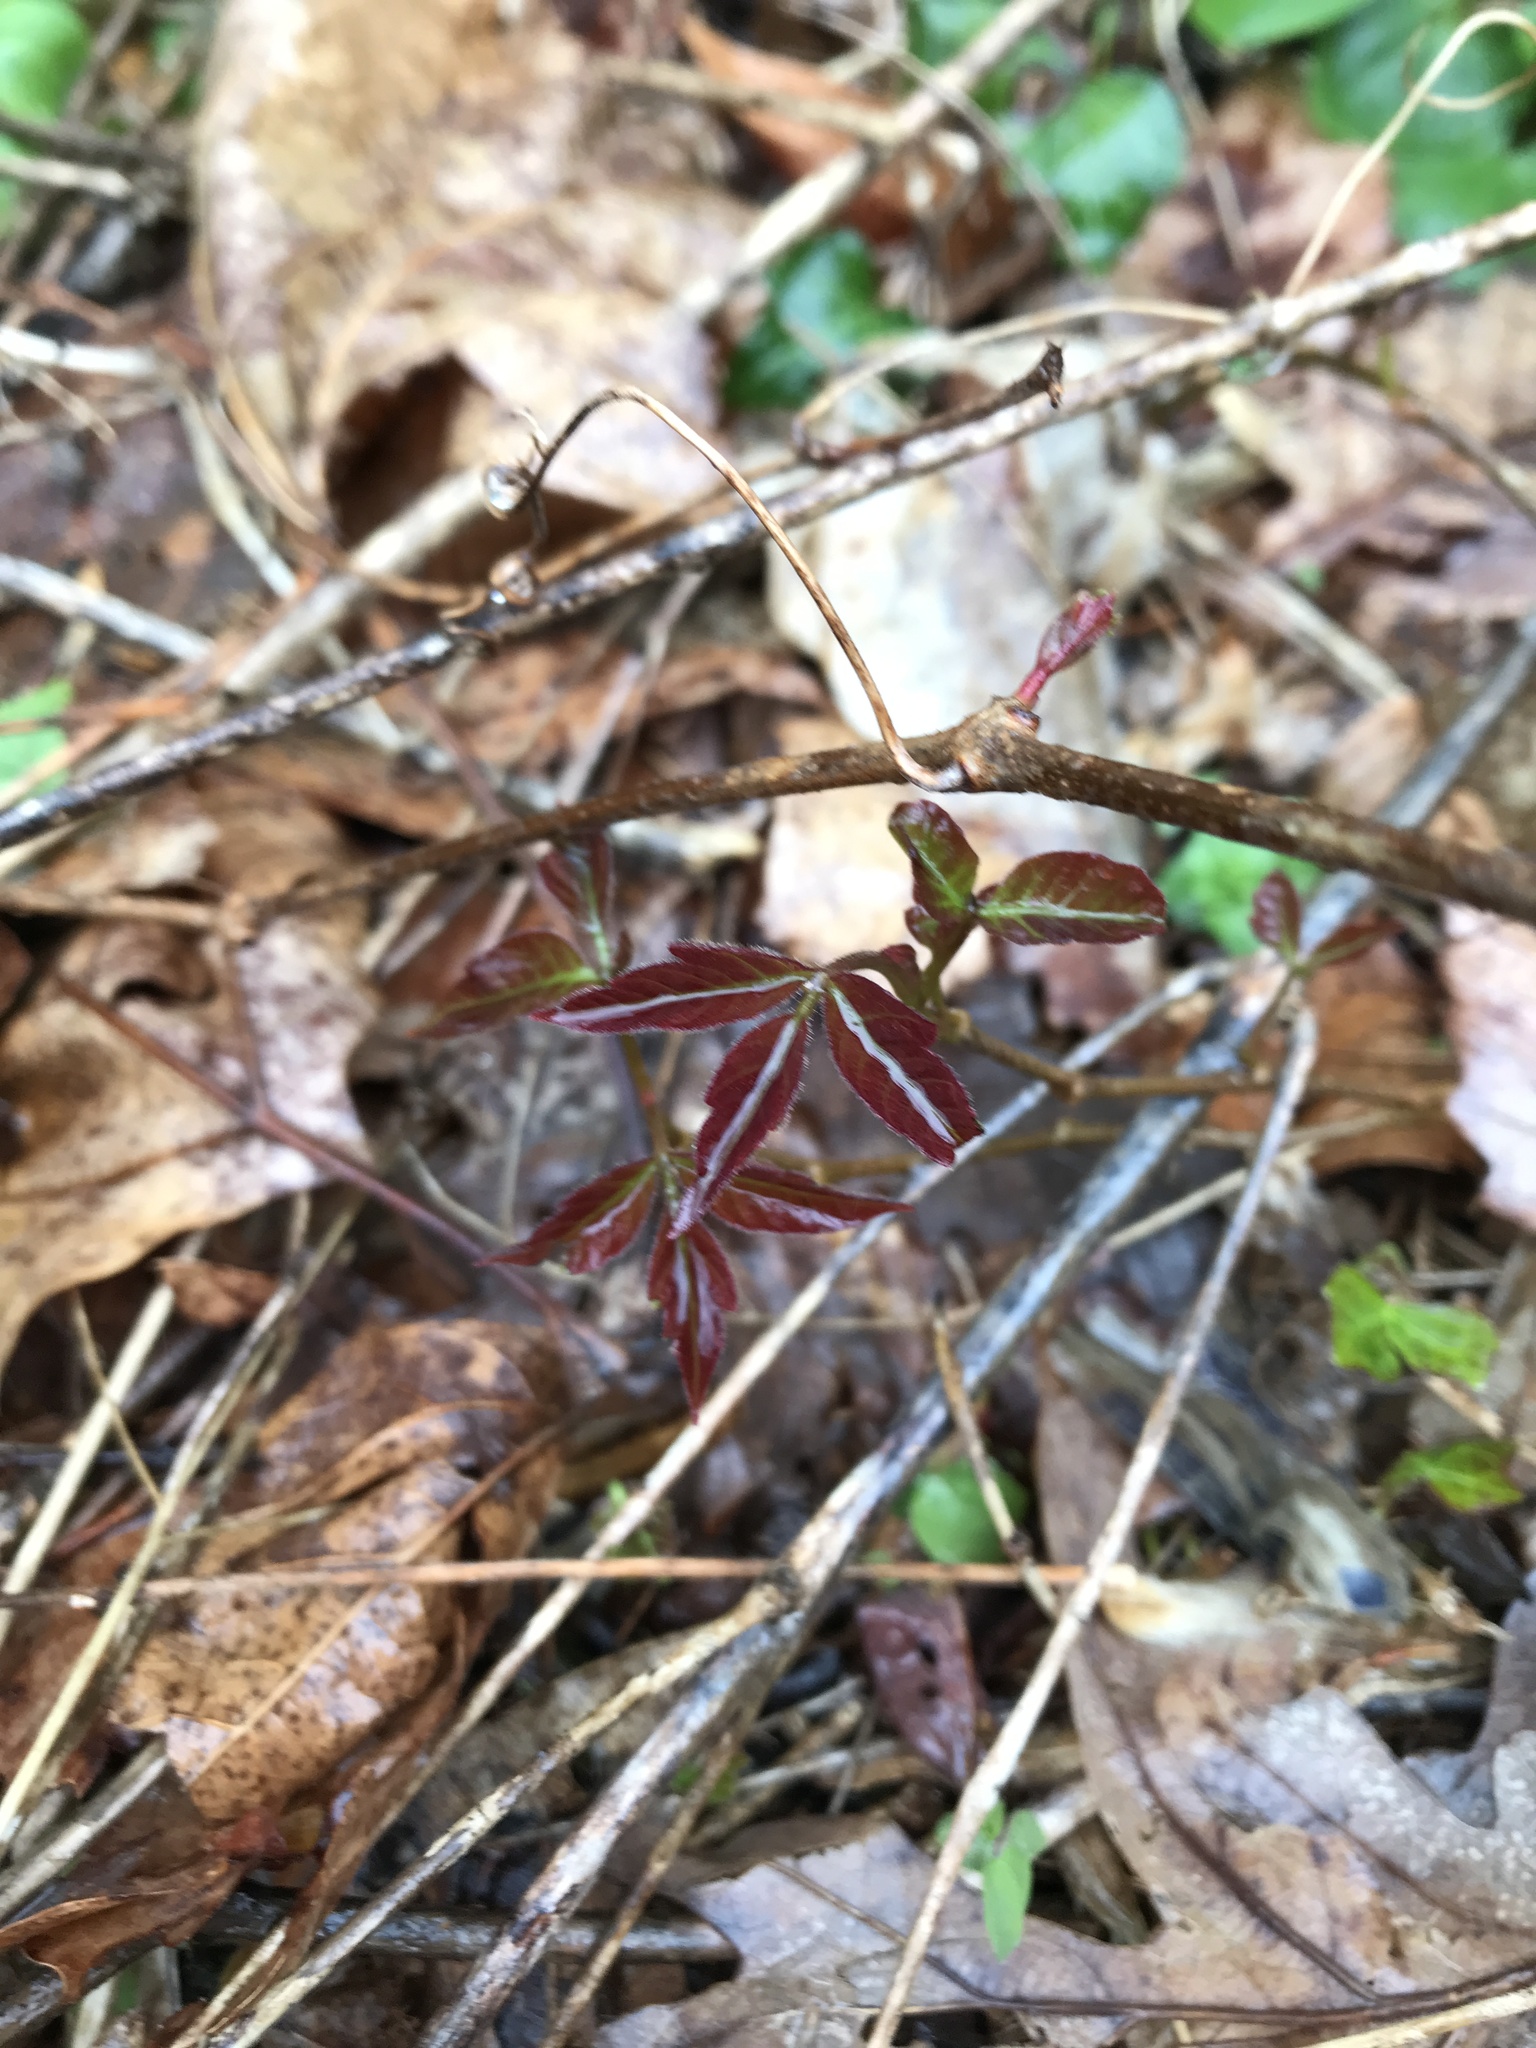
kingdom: Plantae
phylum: Tracheophyta
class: Magnoliopsida
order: Sapindales
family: Anacardiaceae
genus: Toxicodendron
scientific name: Toxicodendron radicans
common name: Poison ivy
